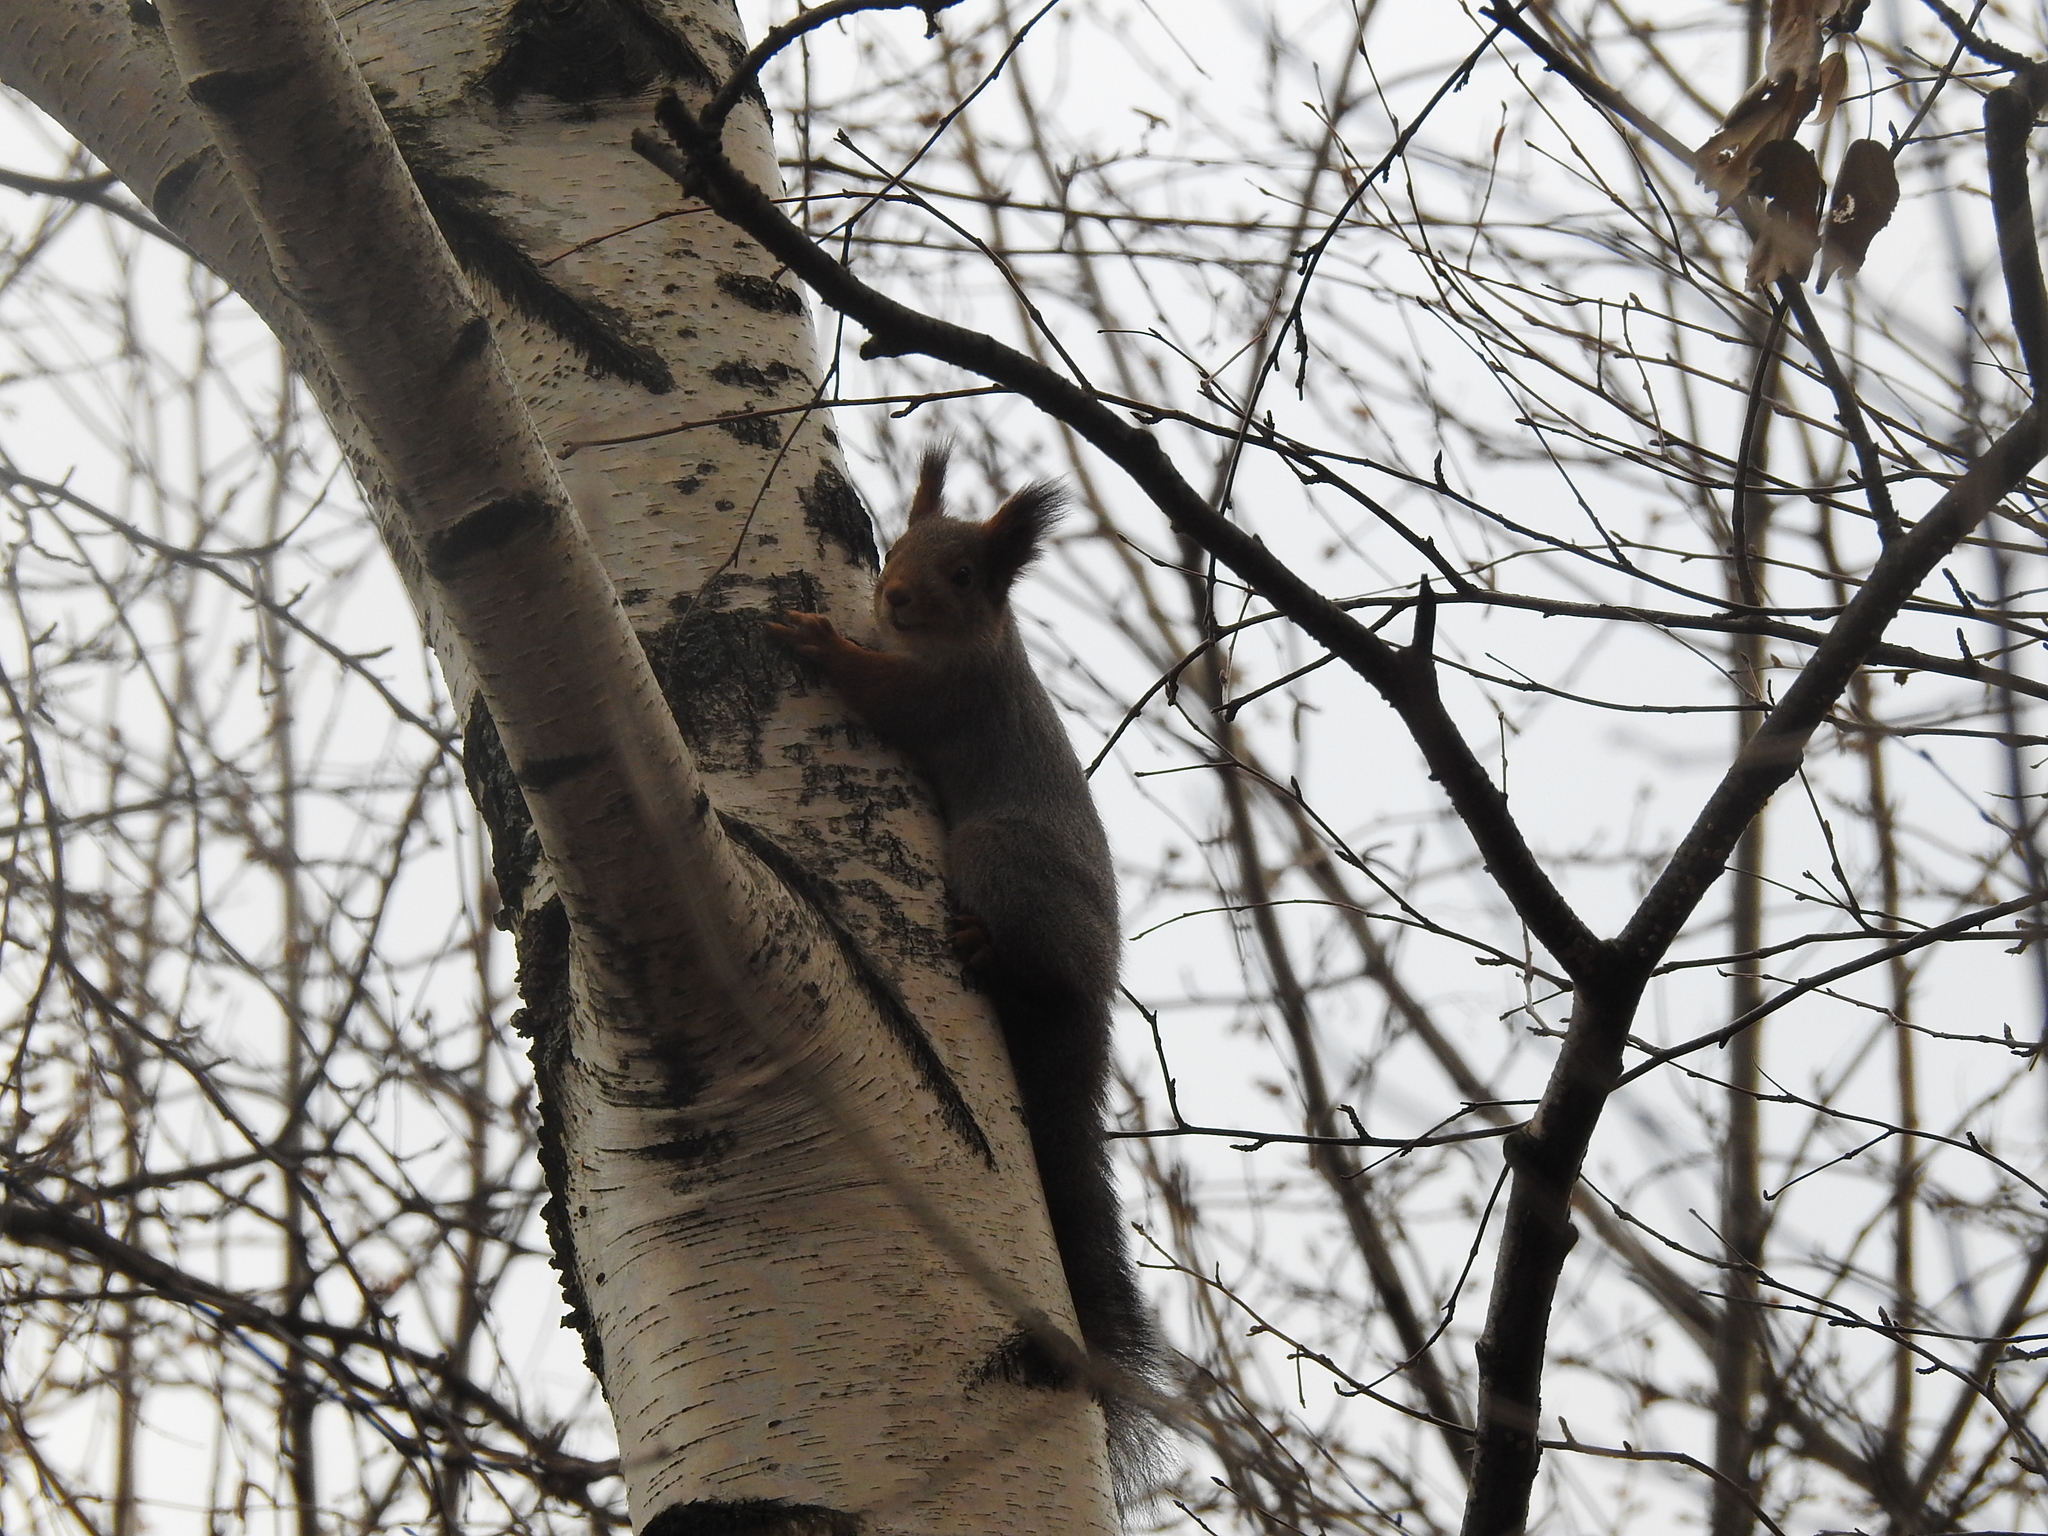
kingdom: Animalia
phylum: Chordata
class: Mammalia
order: Rodentia
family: Sciuridae
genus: Sciurus
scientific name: Sciurus vulgaris
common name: Eurasian red squirrel
